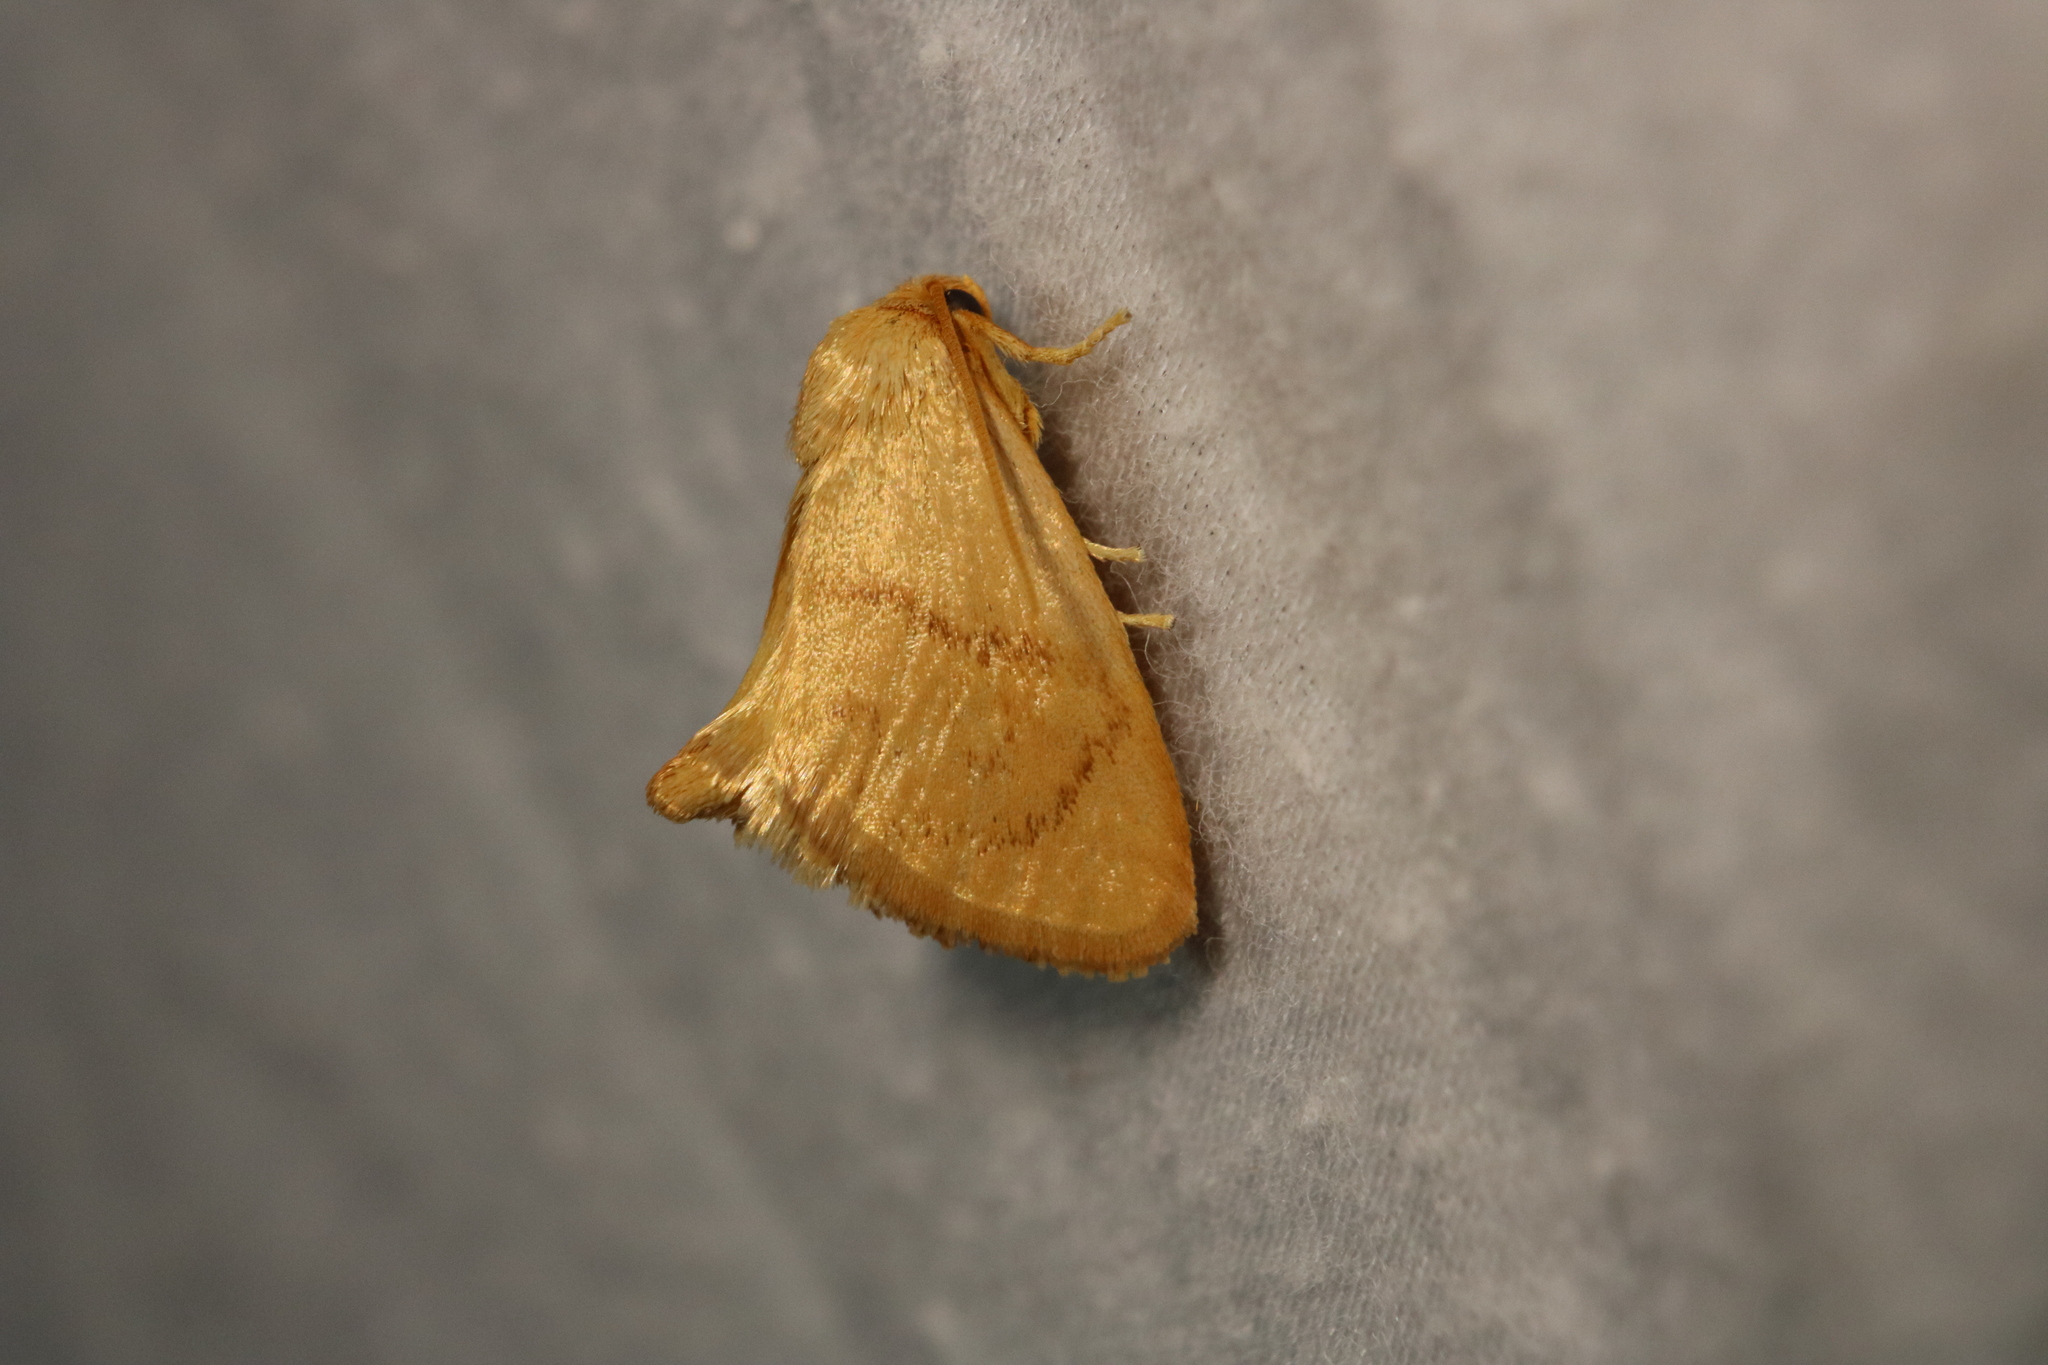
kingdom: Animalia
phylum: Arthropoda
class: Insecta
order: Lepidoptera
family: Limacodidae
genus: Tortricidia
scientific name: Tortricidia flexuosa
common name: Abbreviated button slug moth
